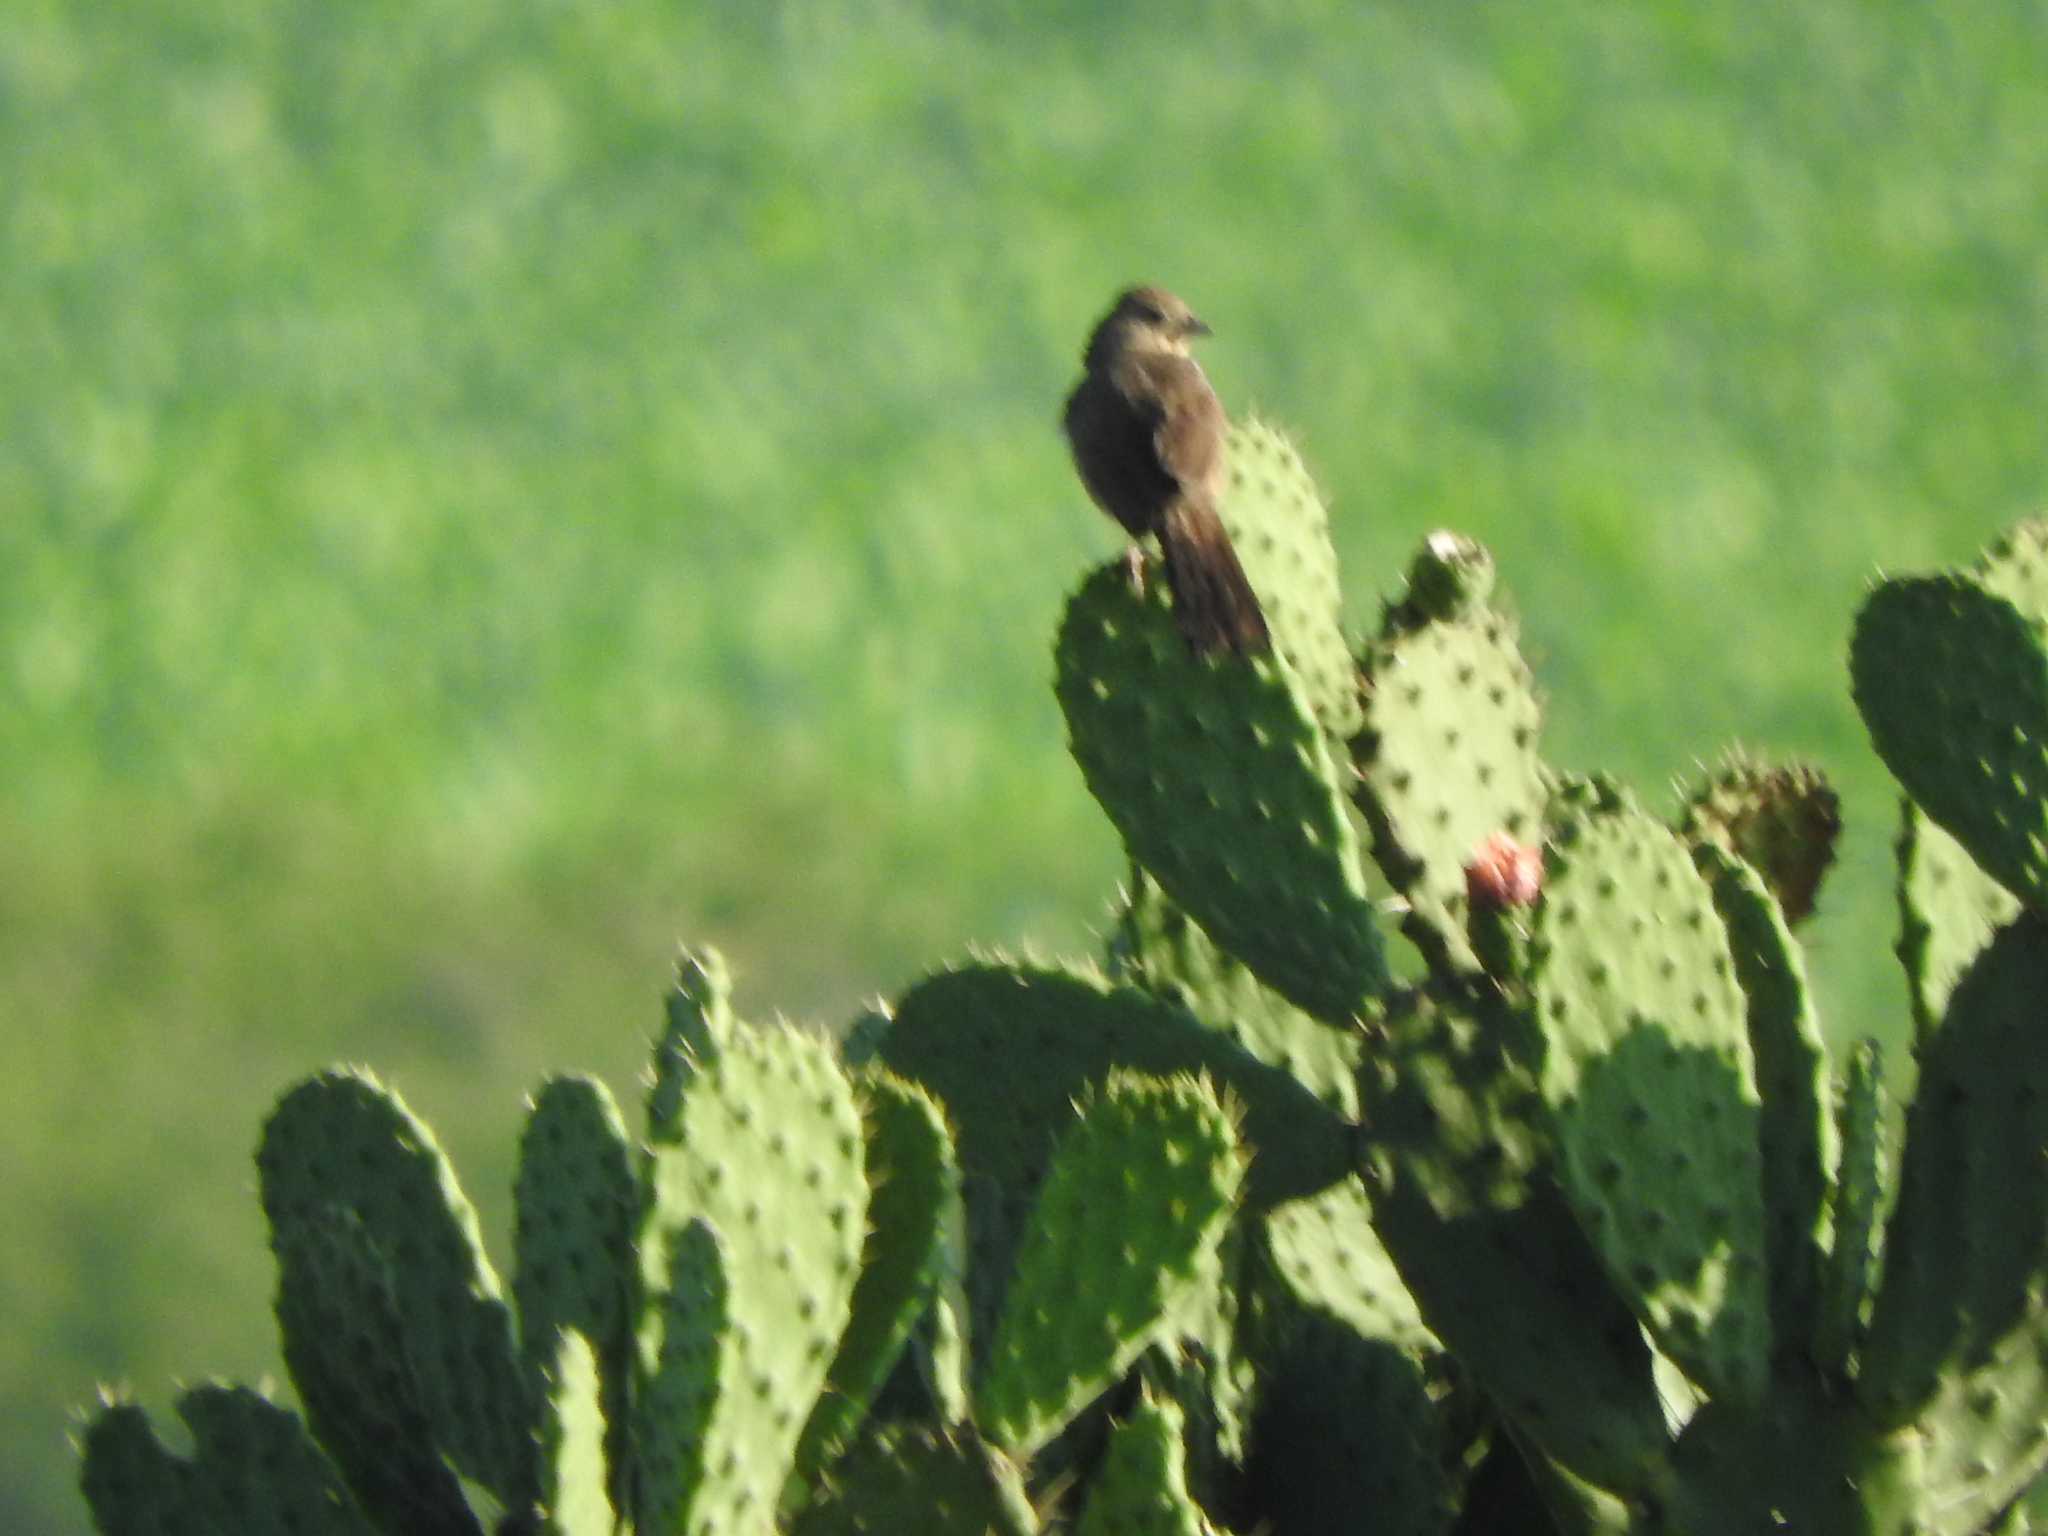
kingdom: Animalia
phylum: Chordata
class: Aves
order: Passeriformes
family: Passerellidae
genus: Melozone
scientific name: Melozone fusca
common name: Canyon towhee
